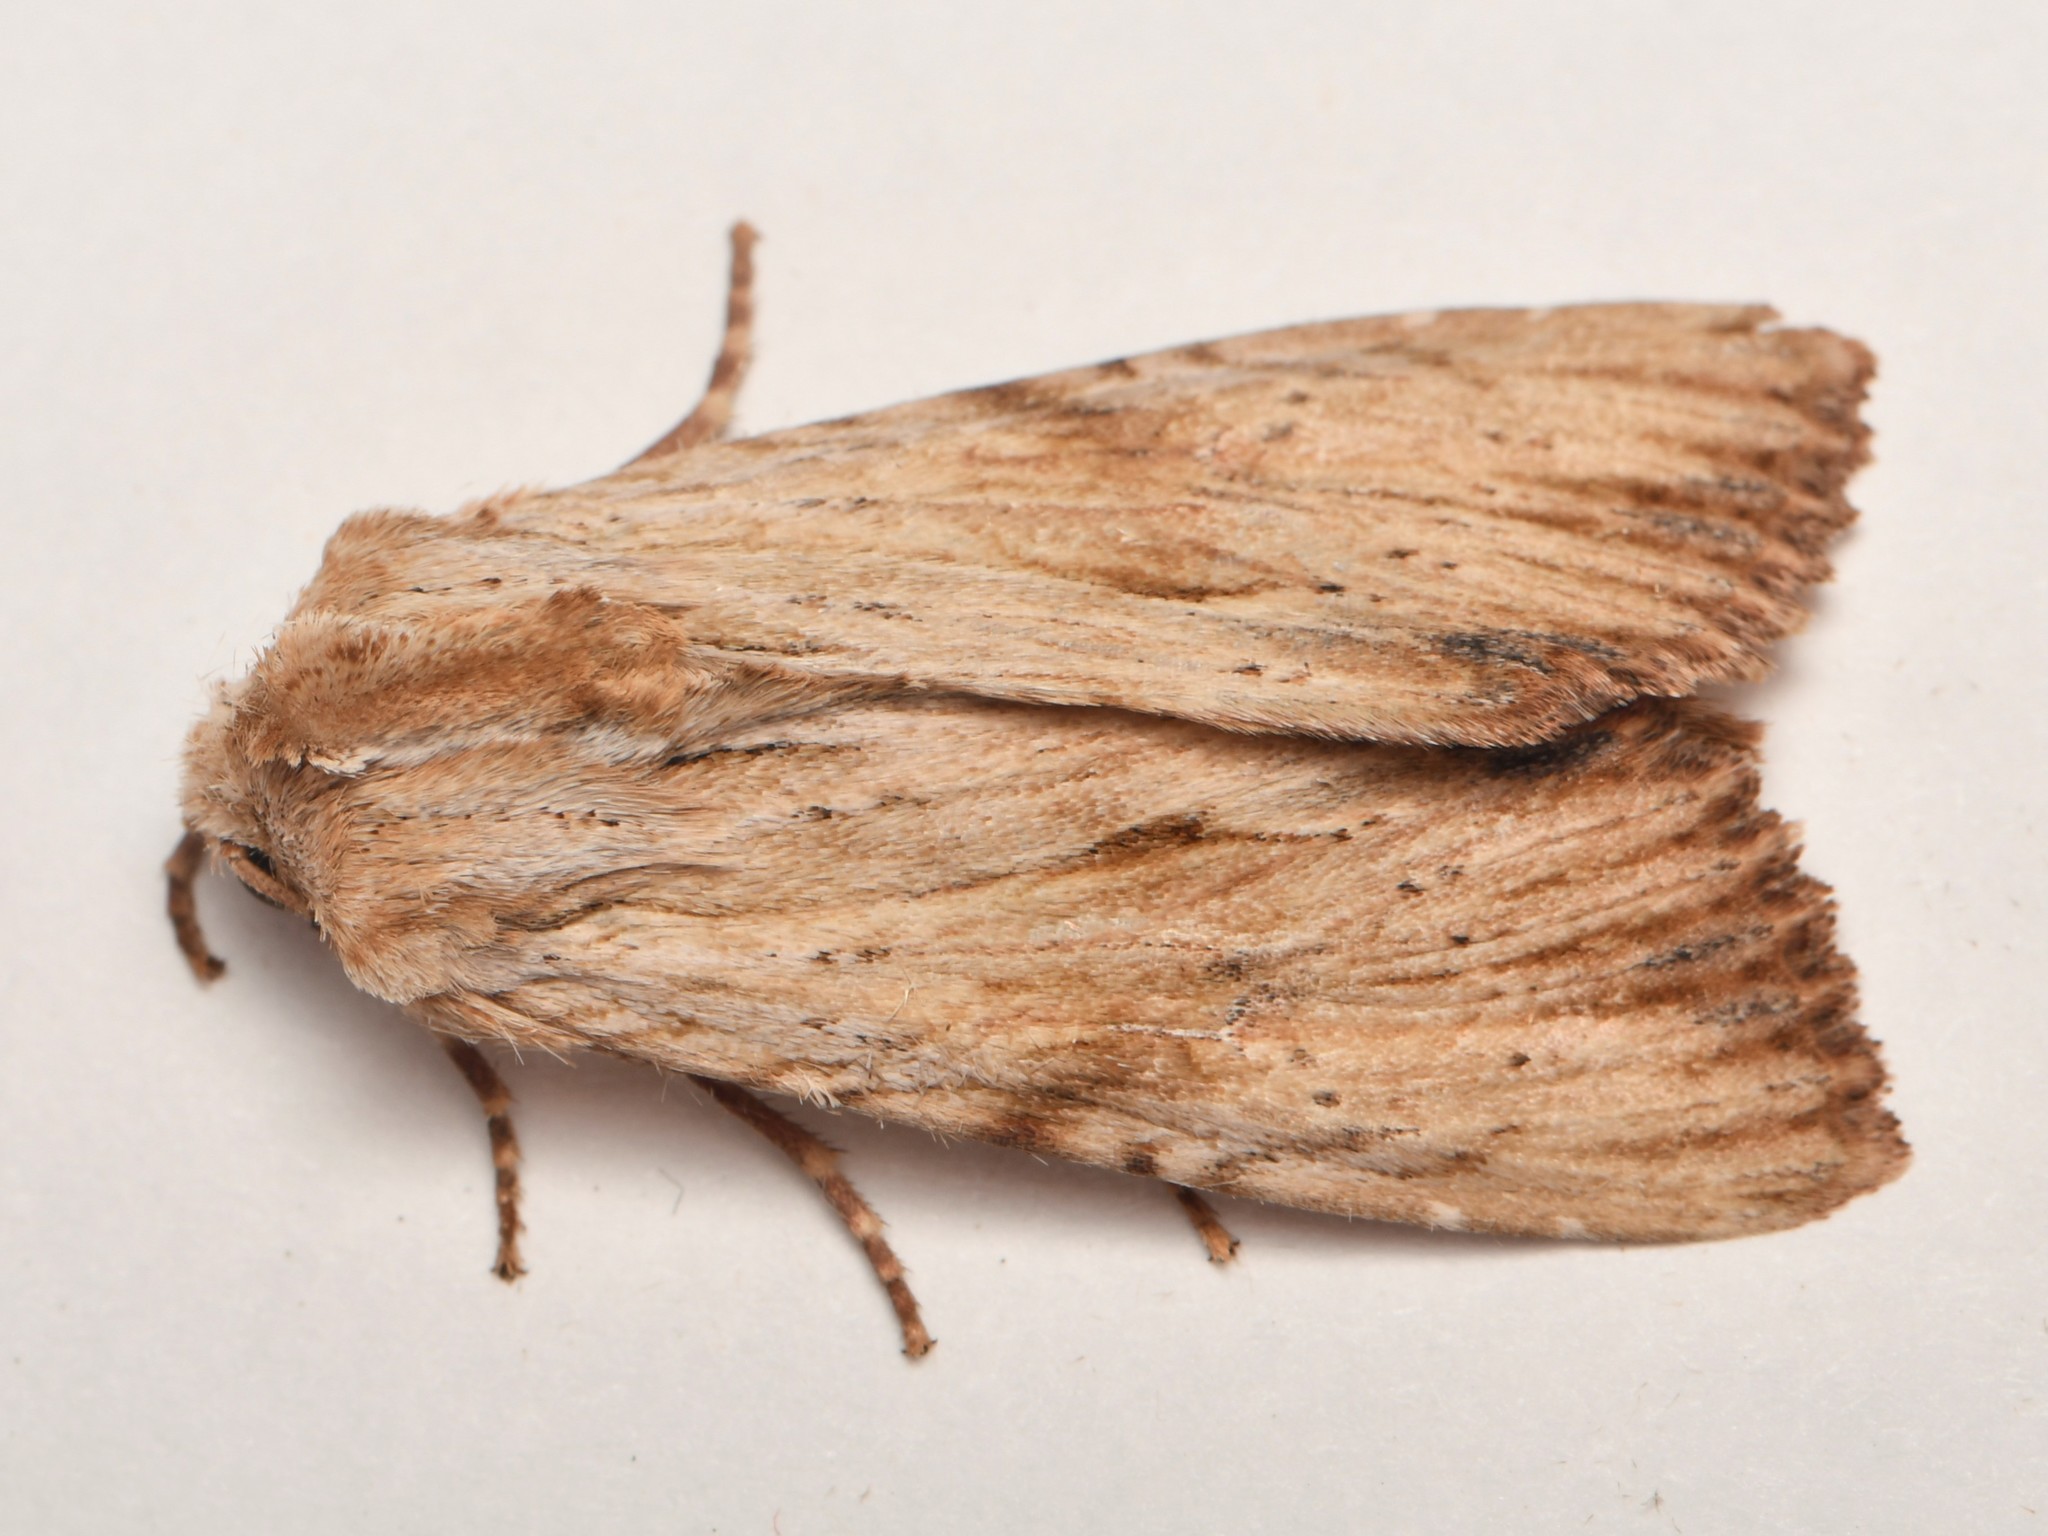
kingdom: Animalia
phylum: Arthropoda
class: Insecta
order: Lepidoptera
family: Noctuidae
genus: Apamea
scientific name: Apamea lithoxylaea
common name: Light arches
